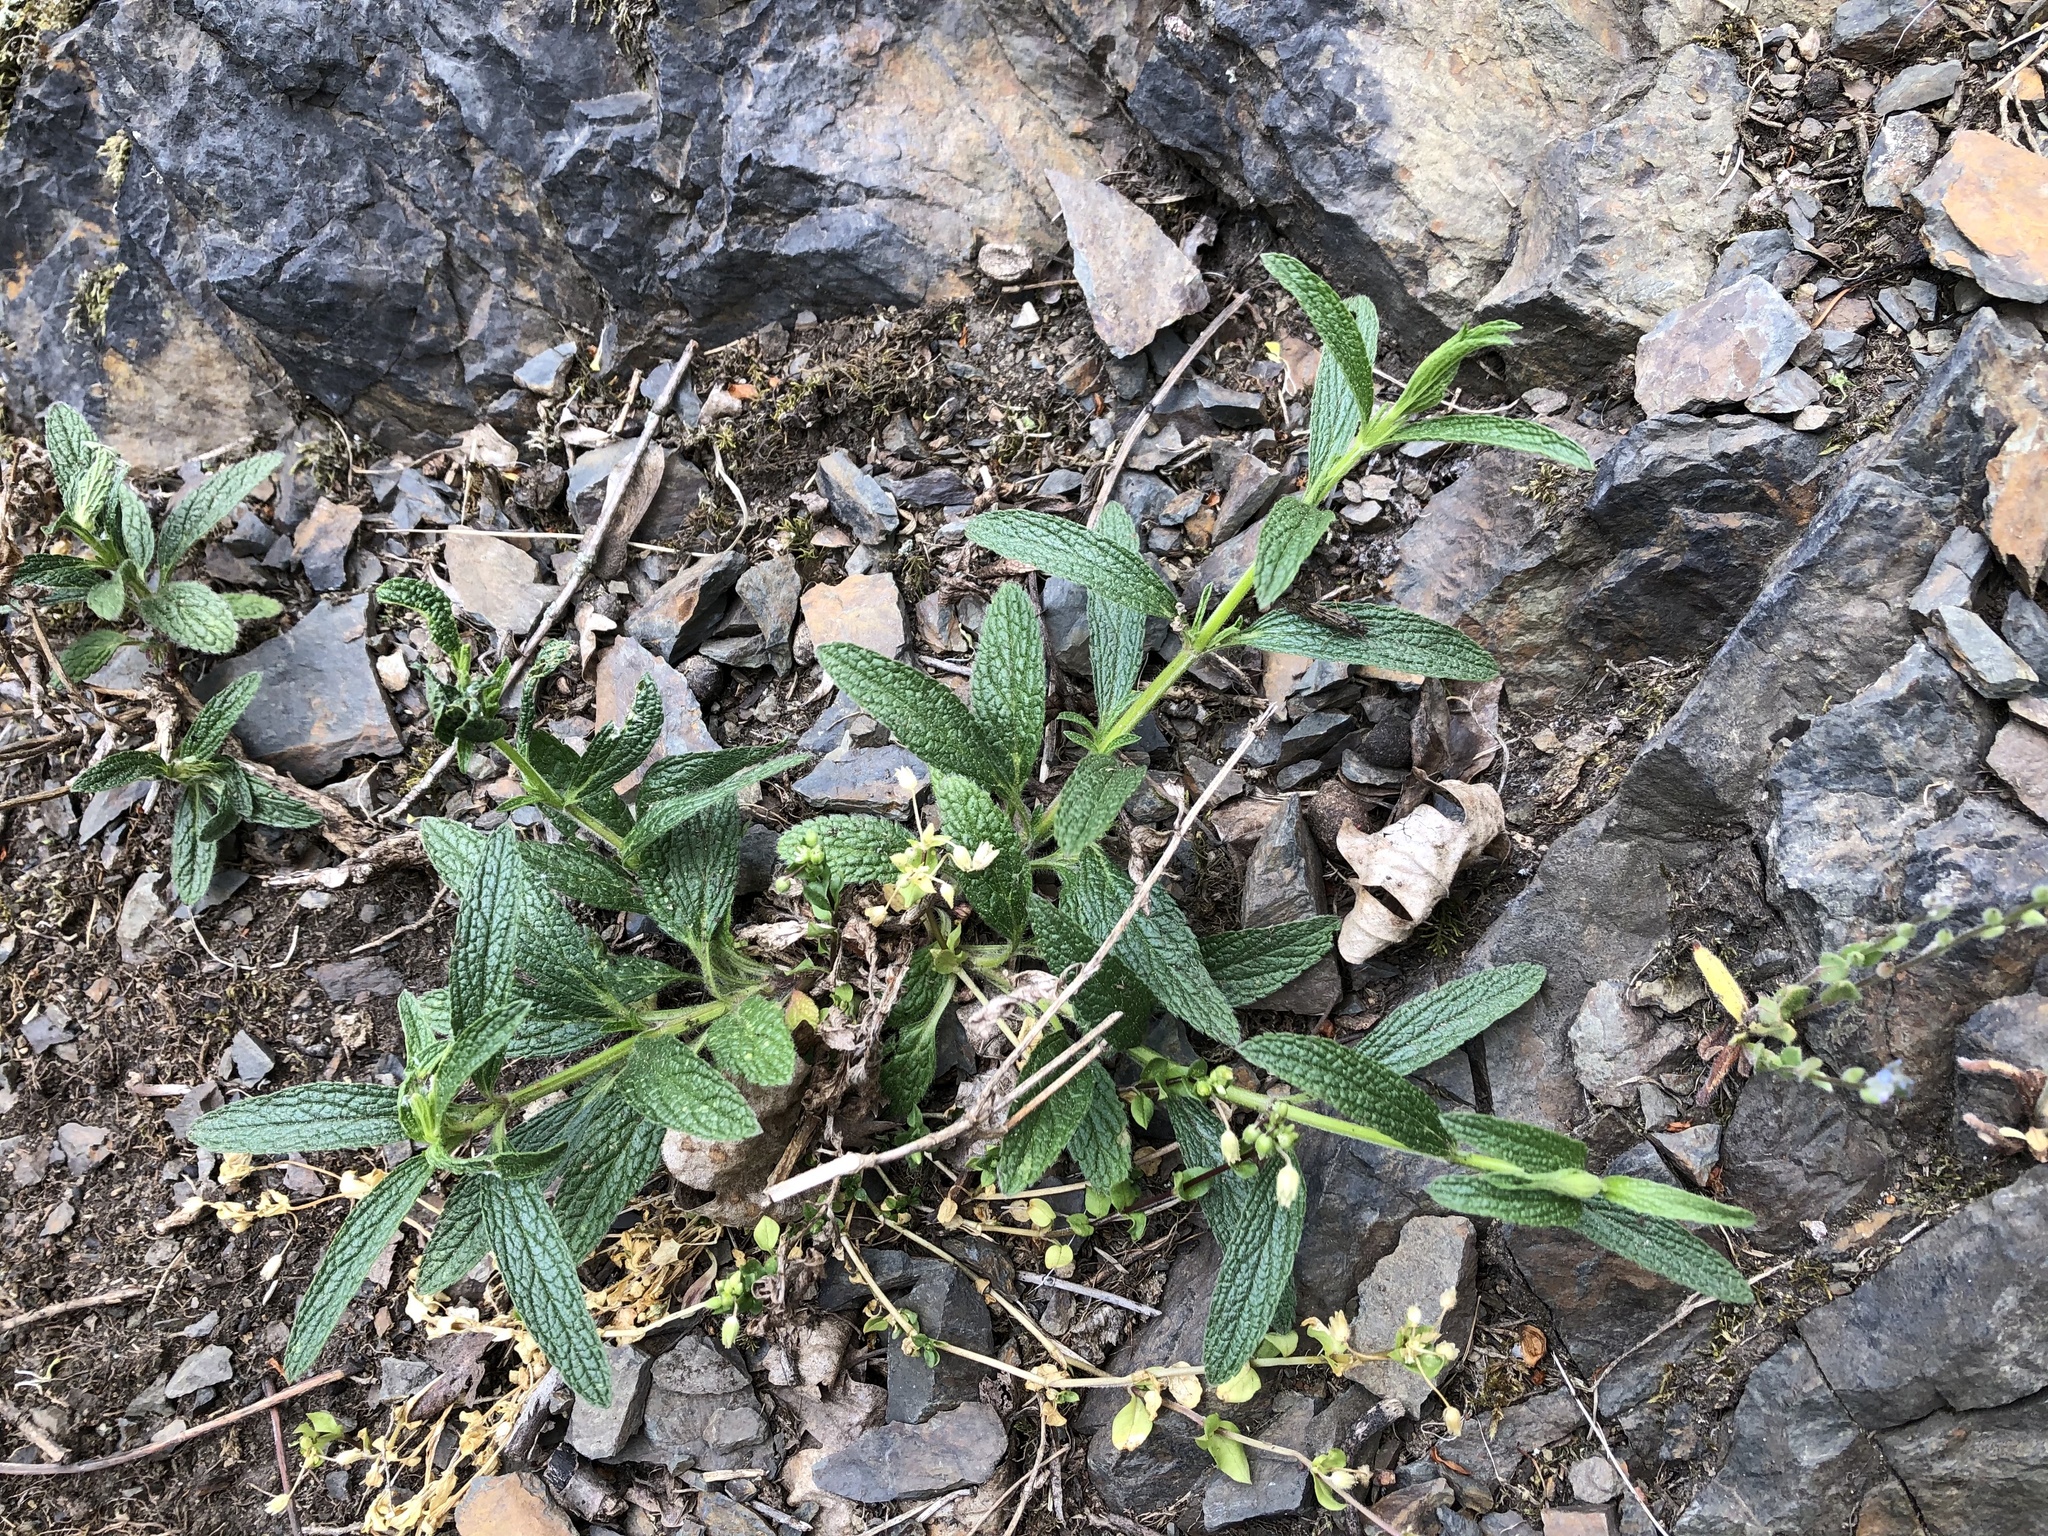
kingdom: Plantae
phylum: Tracheophyta
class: Magnoliopsida
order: Lamiales
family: Lamiaceae
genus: Stachys
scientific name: Stachys recta
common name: Perennial yellow-woundwort
